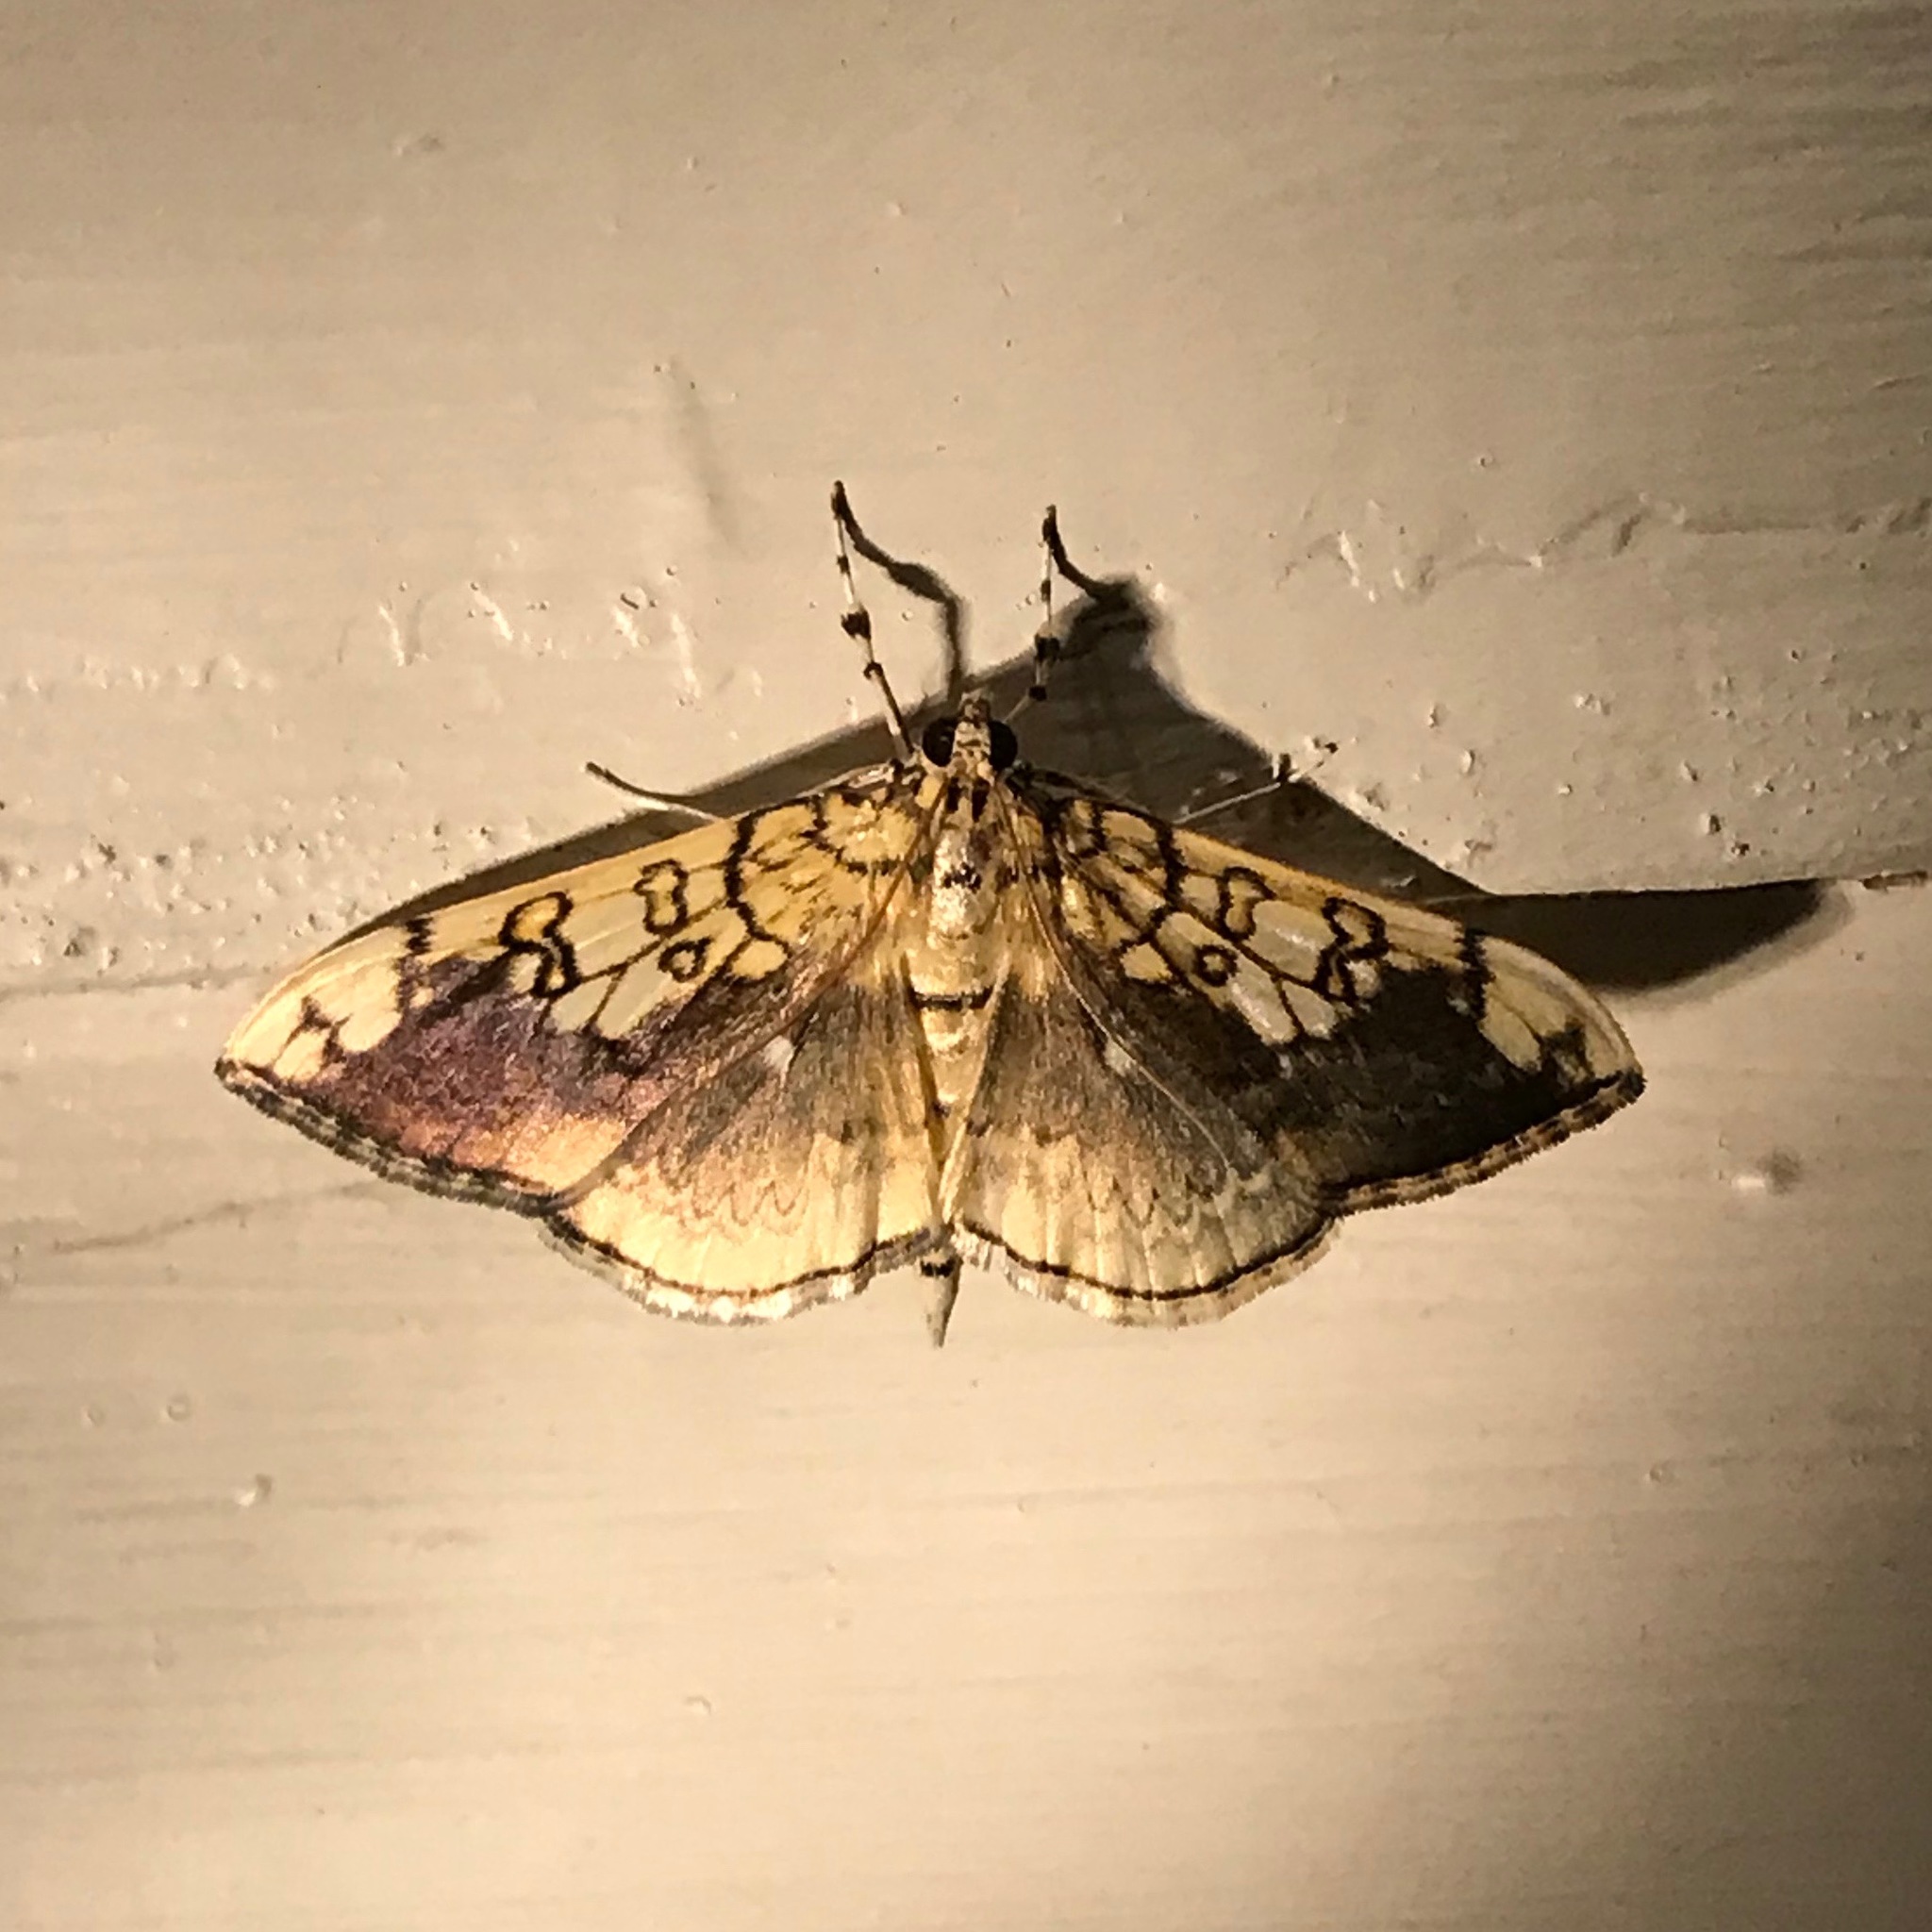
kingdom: Animalia
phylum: Arthropoda
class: Insecta
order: Lepidoptera
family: Crambidae
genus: Pantographa
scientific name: Pantographa limata
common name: Basswood leafroller moth
